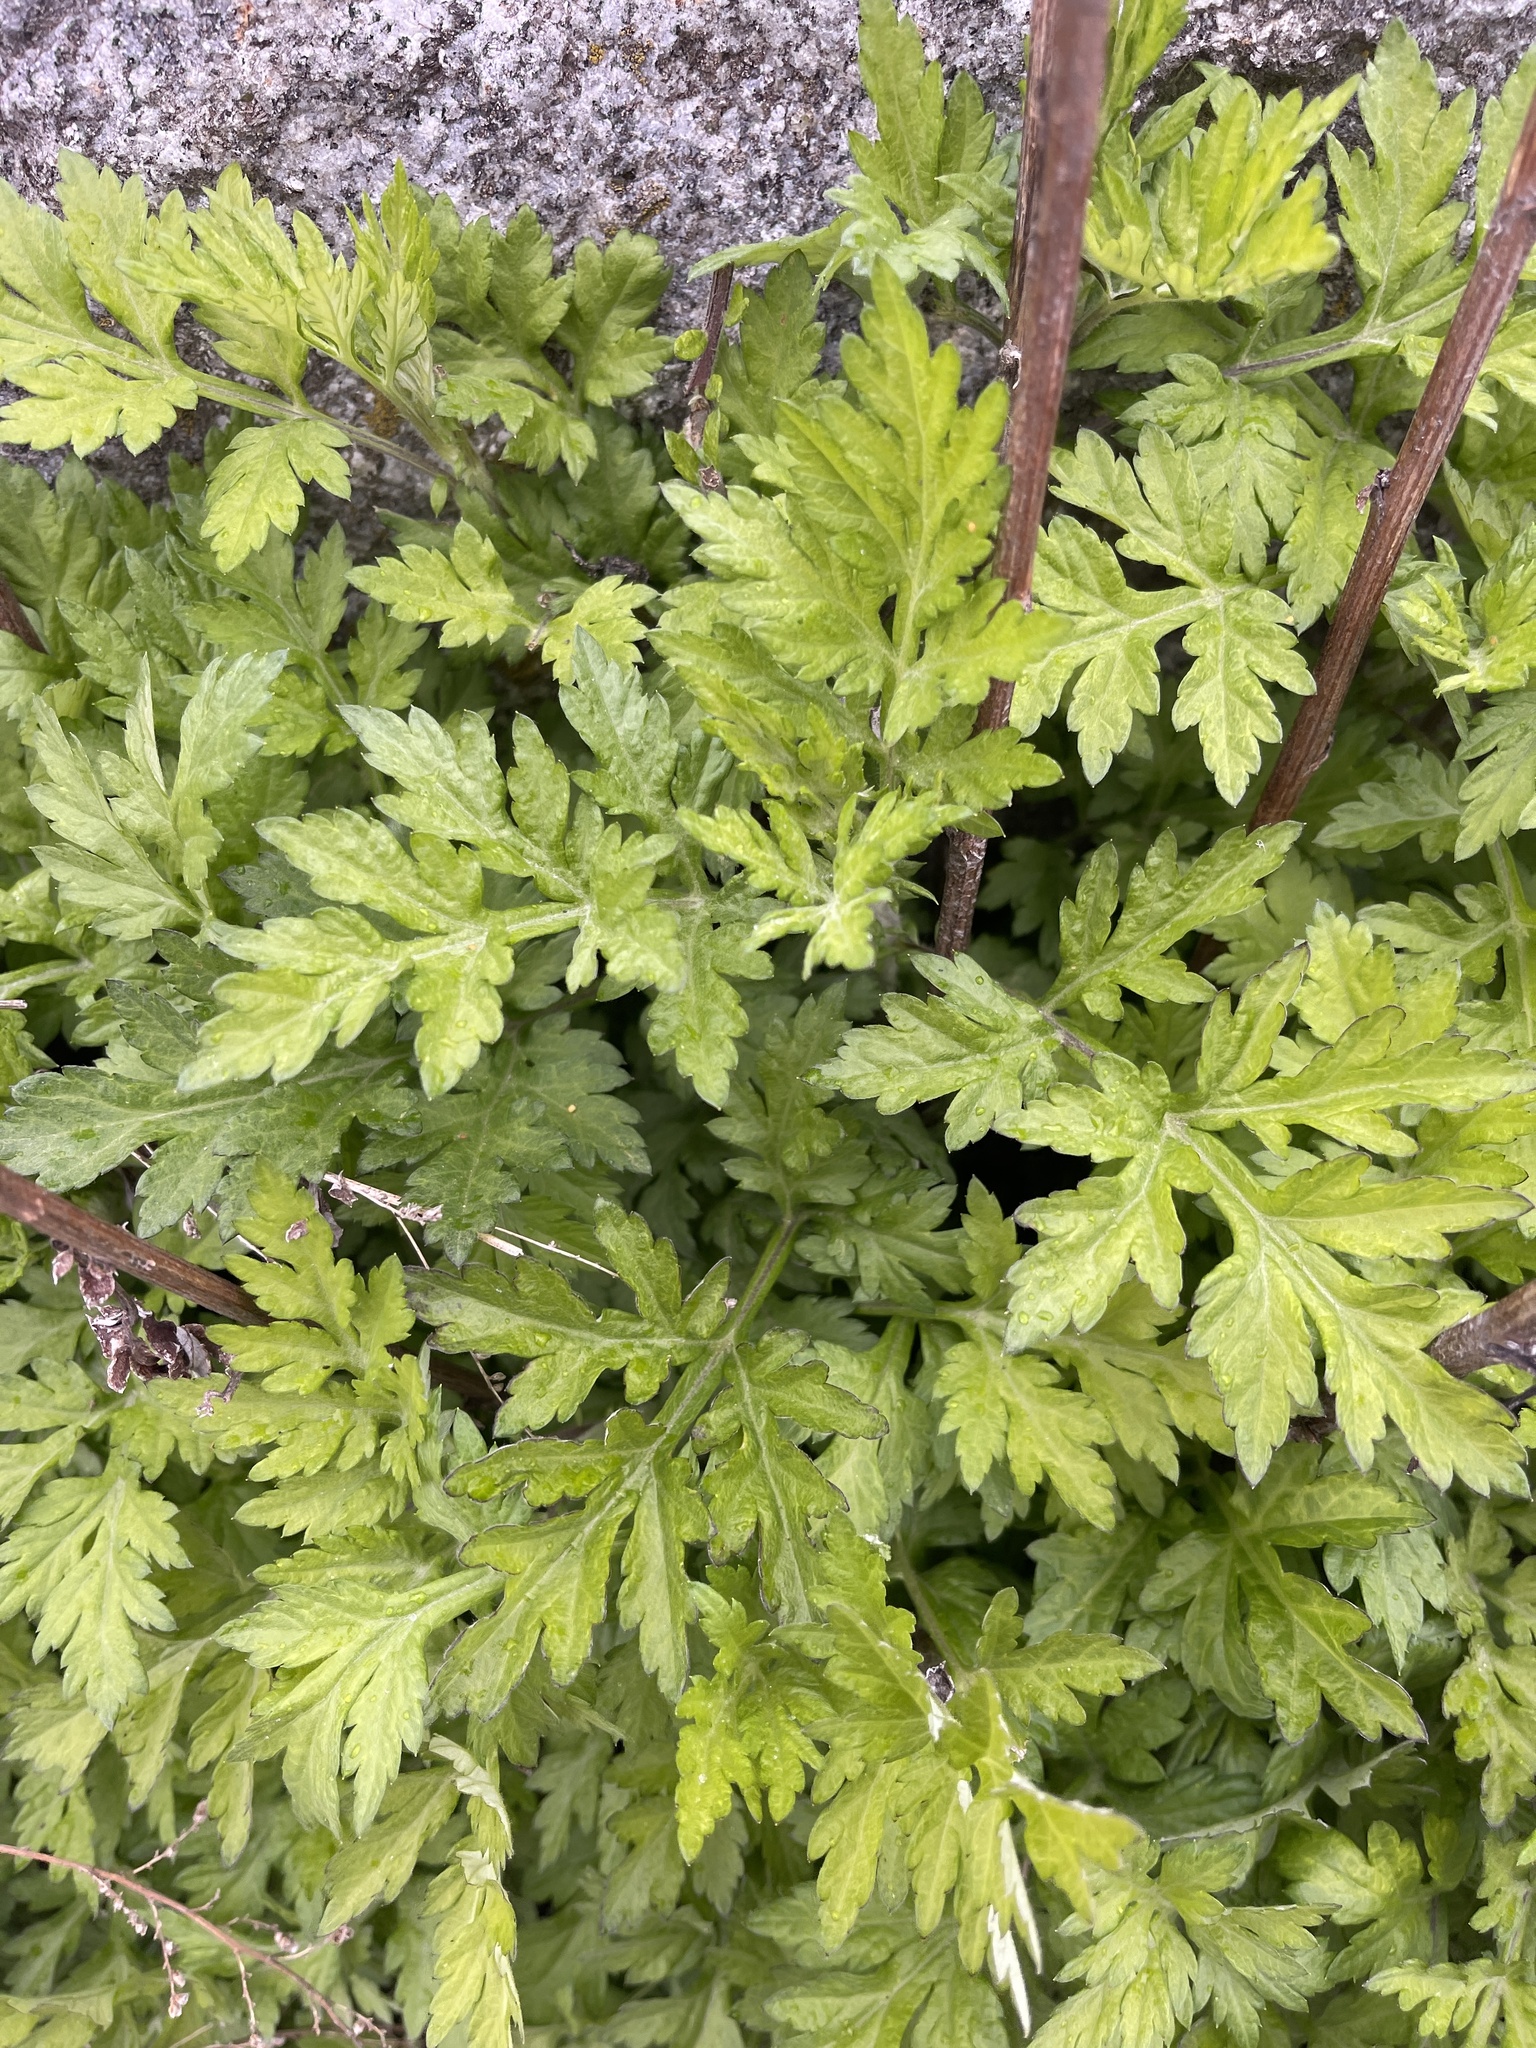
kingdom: Plantae
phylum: Tracheophyta
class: Magnoliopsida
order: Asterales
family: Asteraceae
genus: Artemisia
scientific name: Artemisia vulgaris
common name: Mugwort
